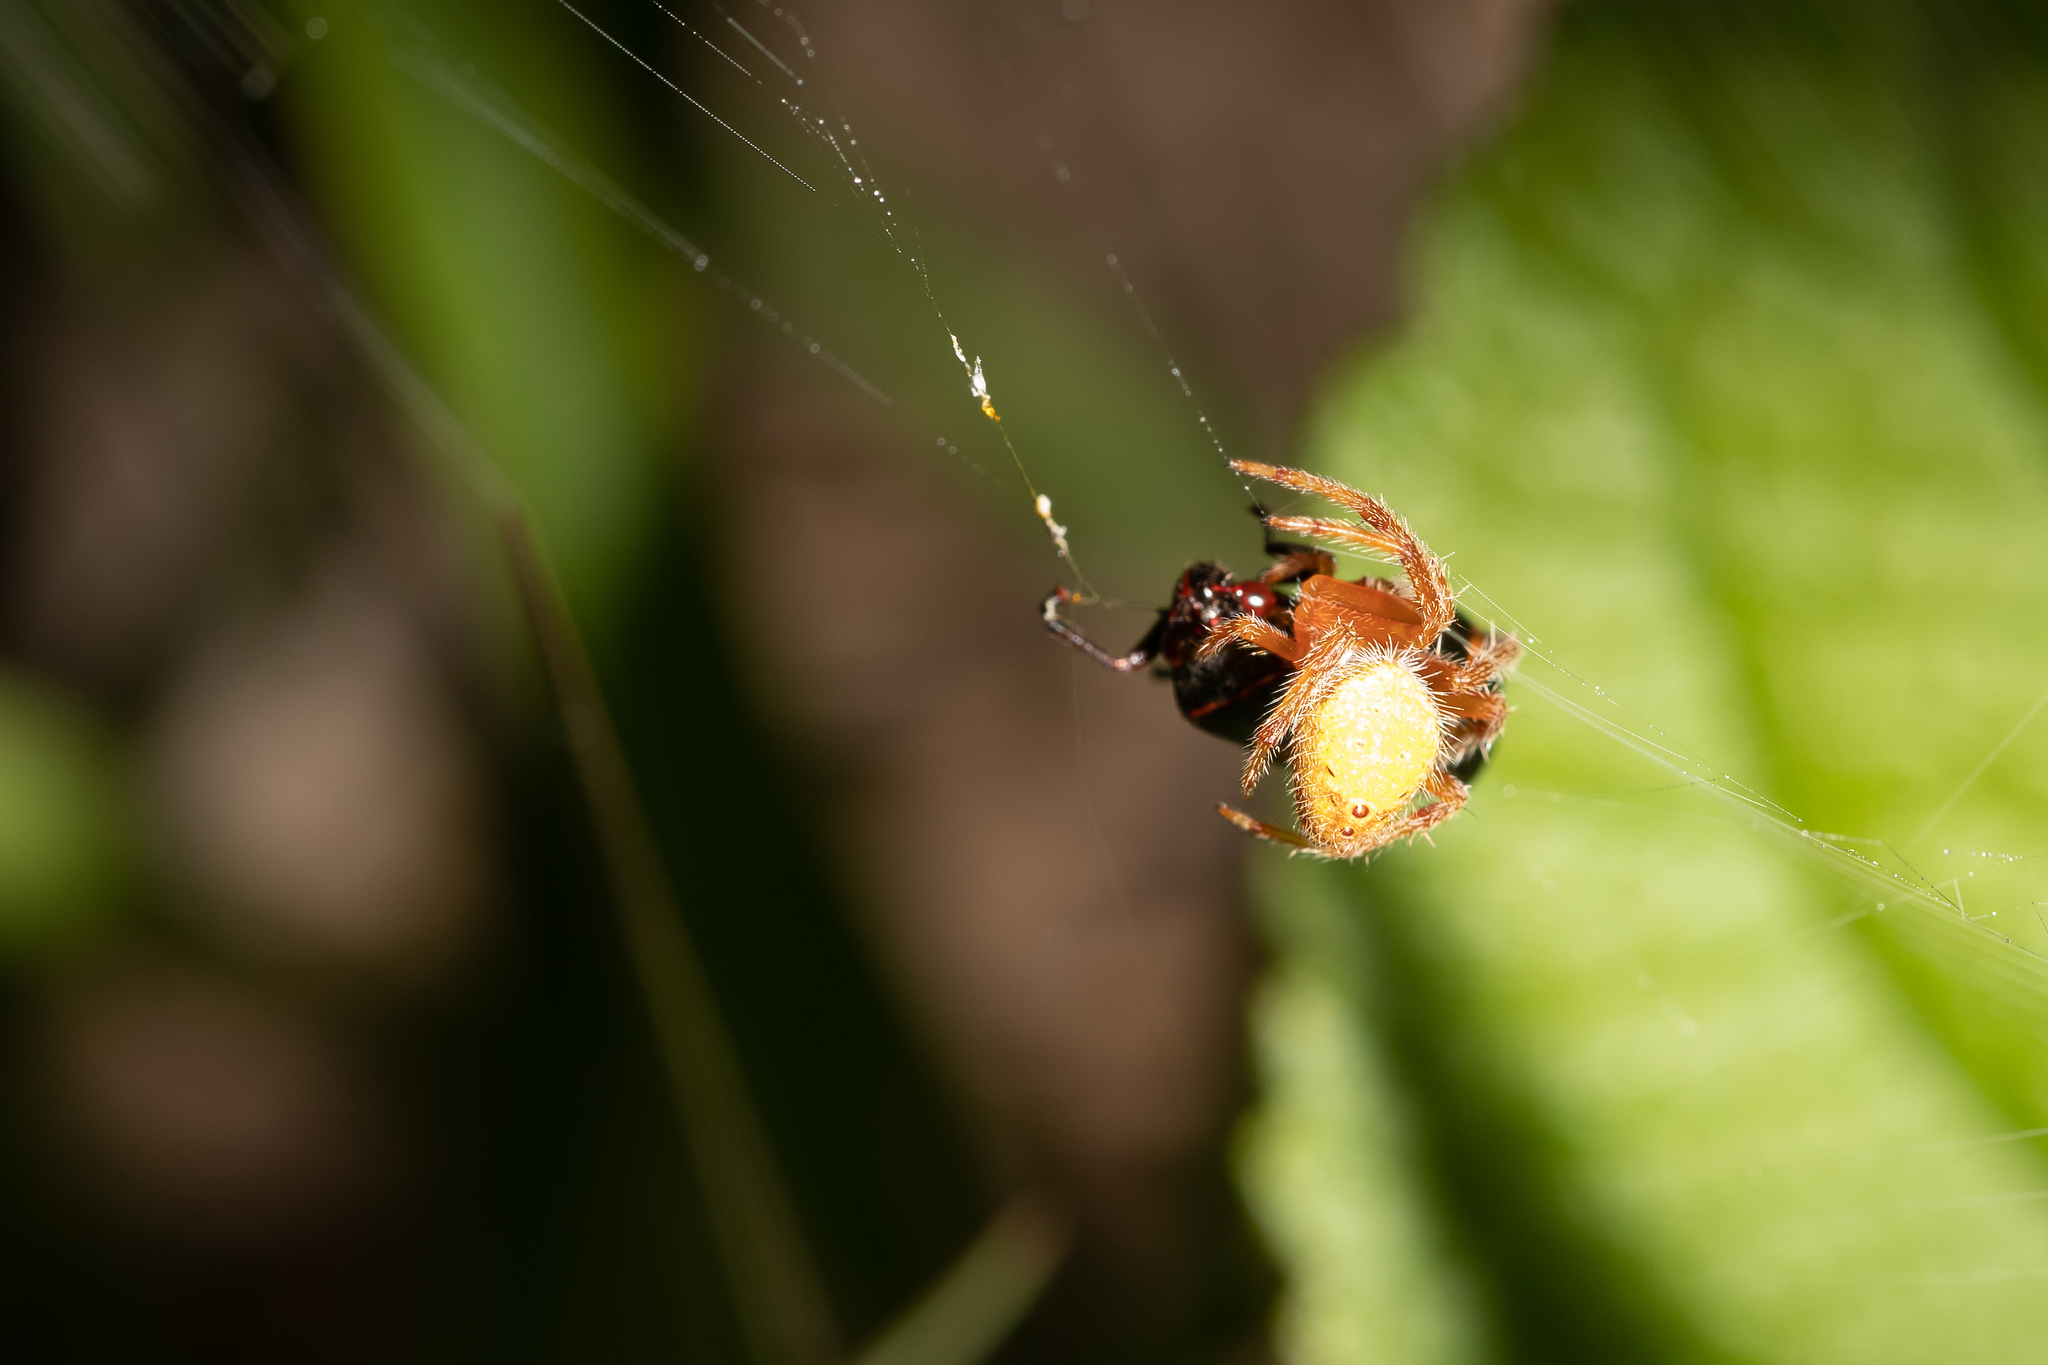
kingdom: Animalia
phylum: Arthropoda
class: Arachnida
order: Araneae
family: Araneidae
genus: Eriophora
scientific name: Eriophora ravilla
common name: Orb weavers
